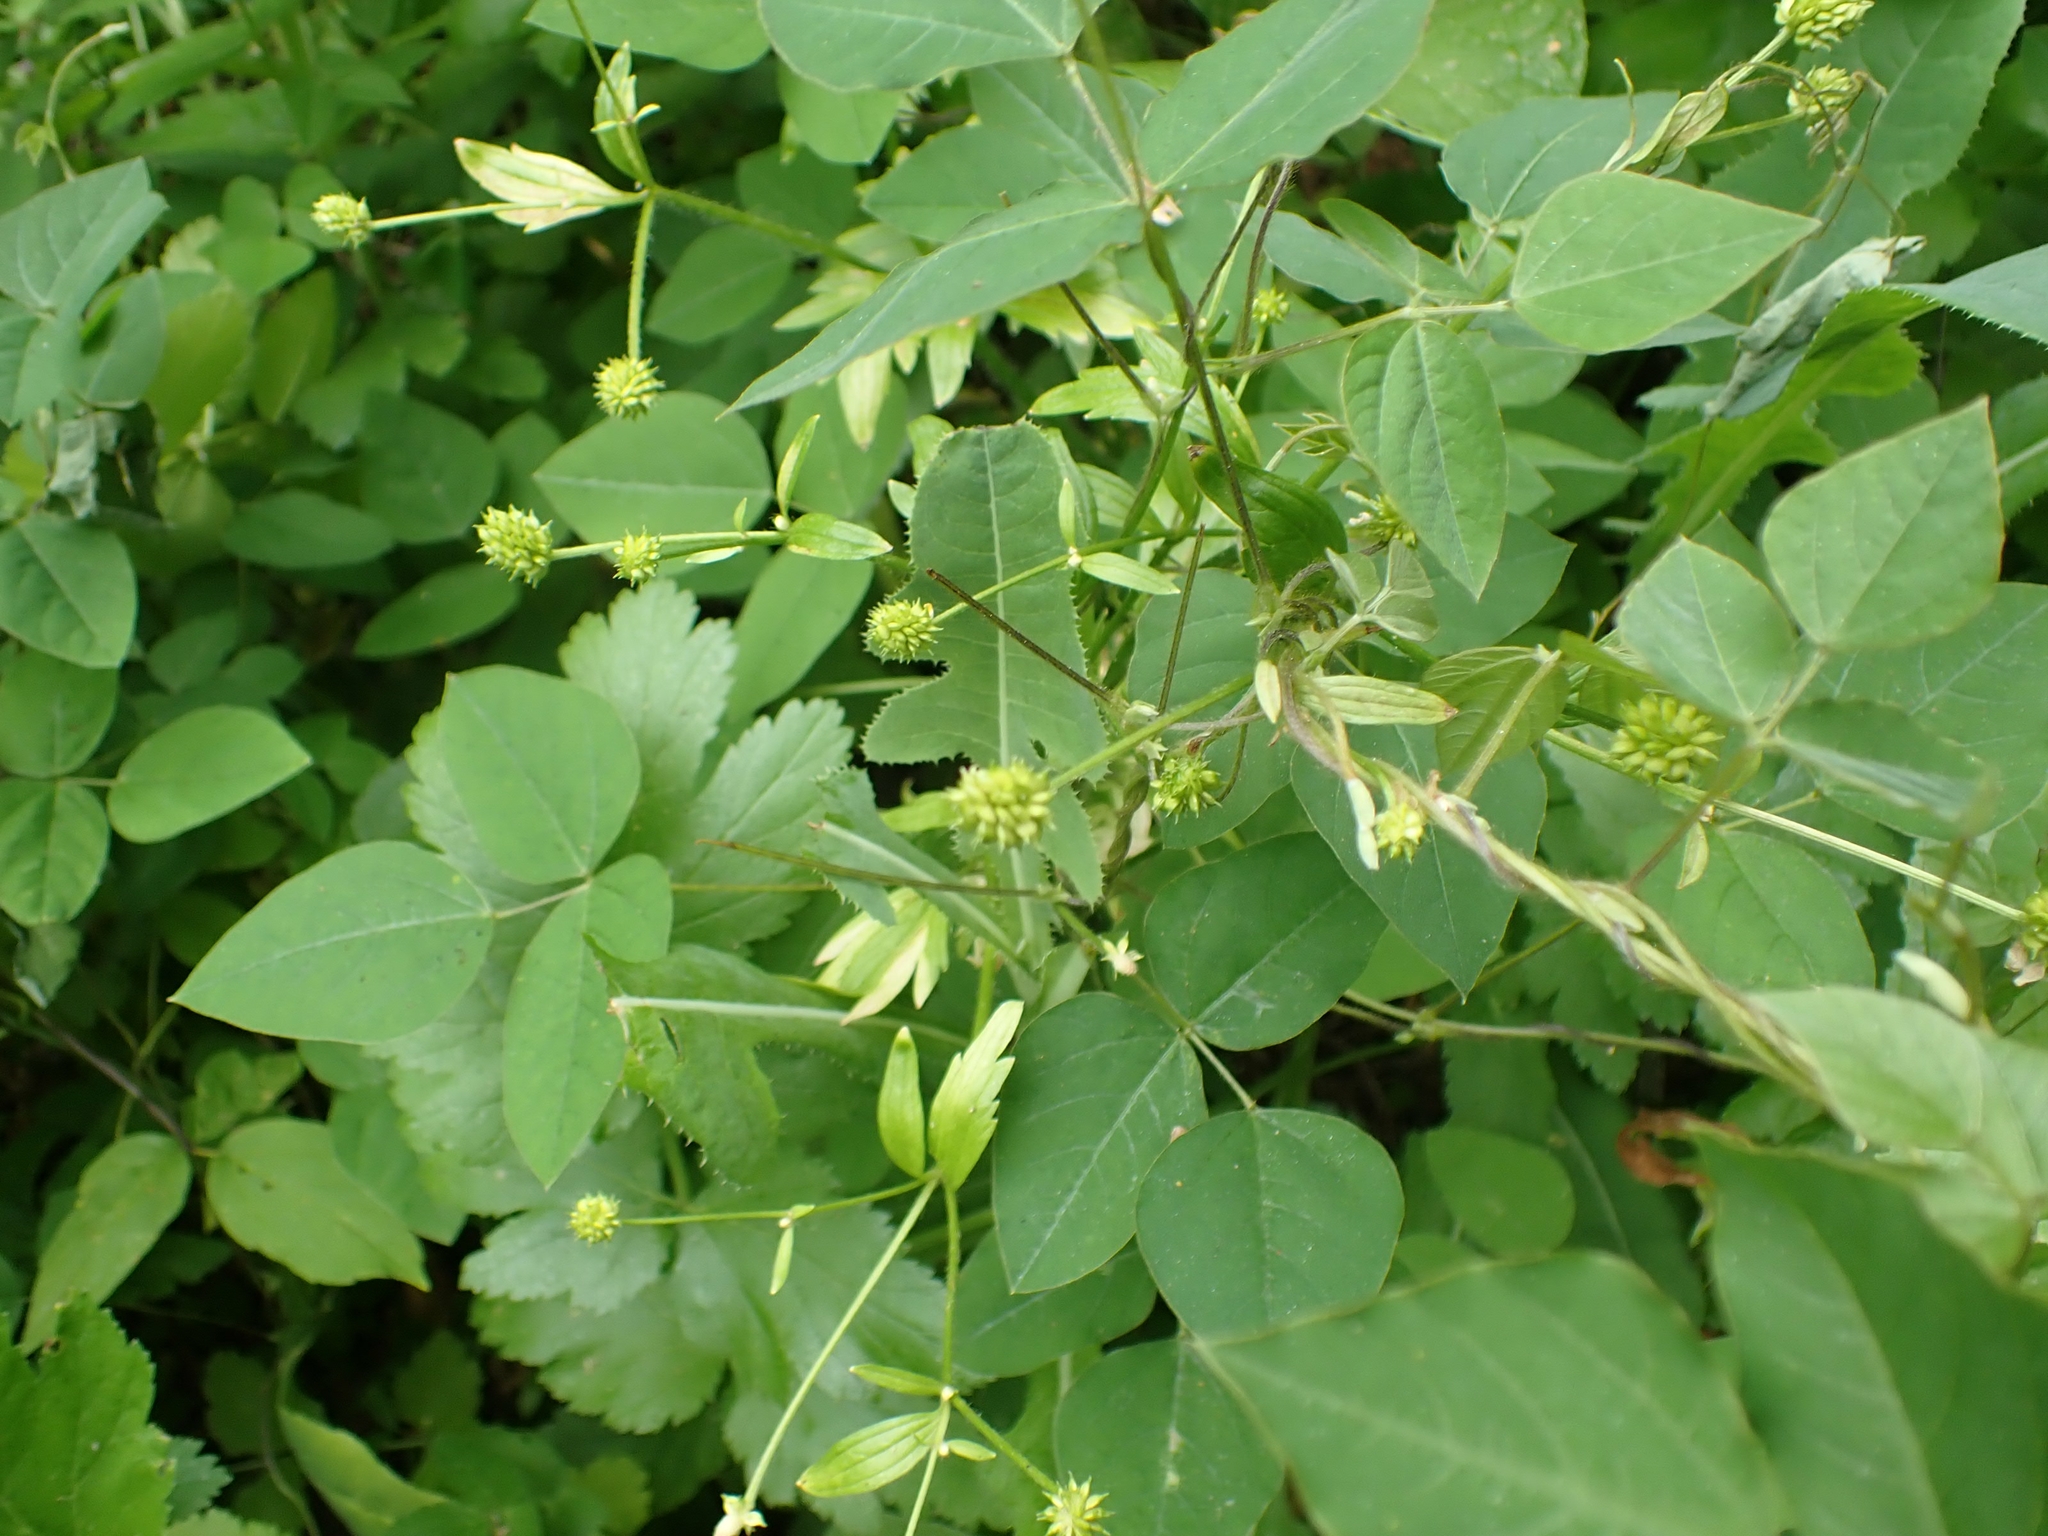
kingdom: Plantae
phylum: Tracheophyta
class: Magnoliopsida
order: Fabales
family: Fabaceae
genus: Amphicarpaea
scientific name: Amphicarpaea bracteata
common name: American hog peanut
